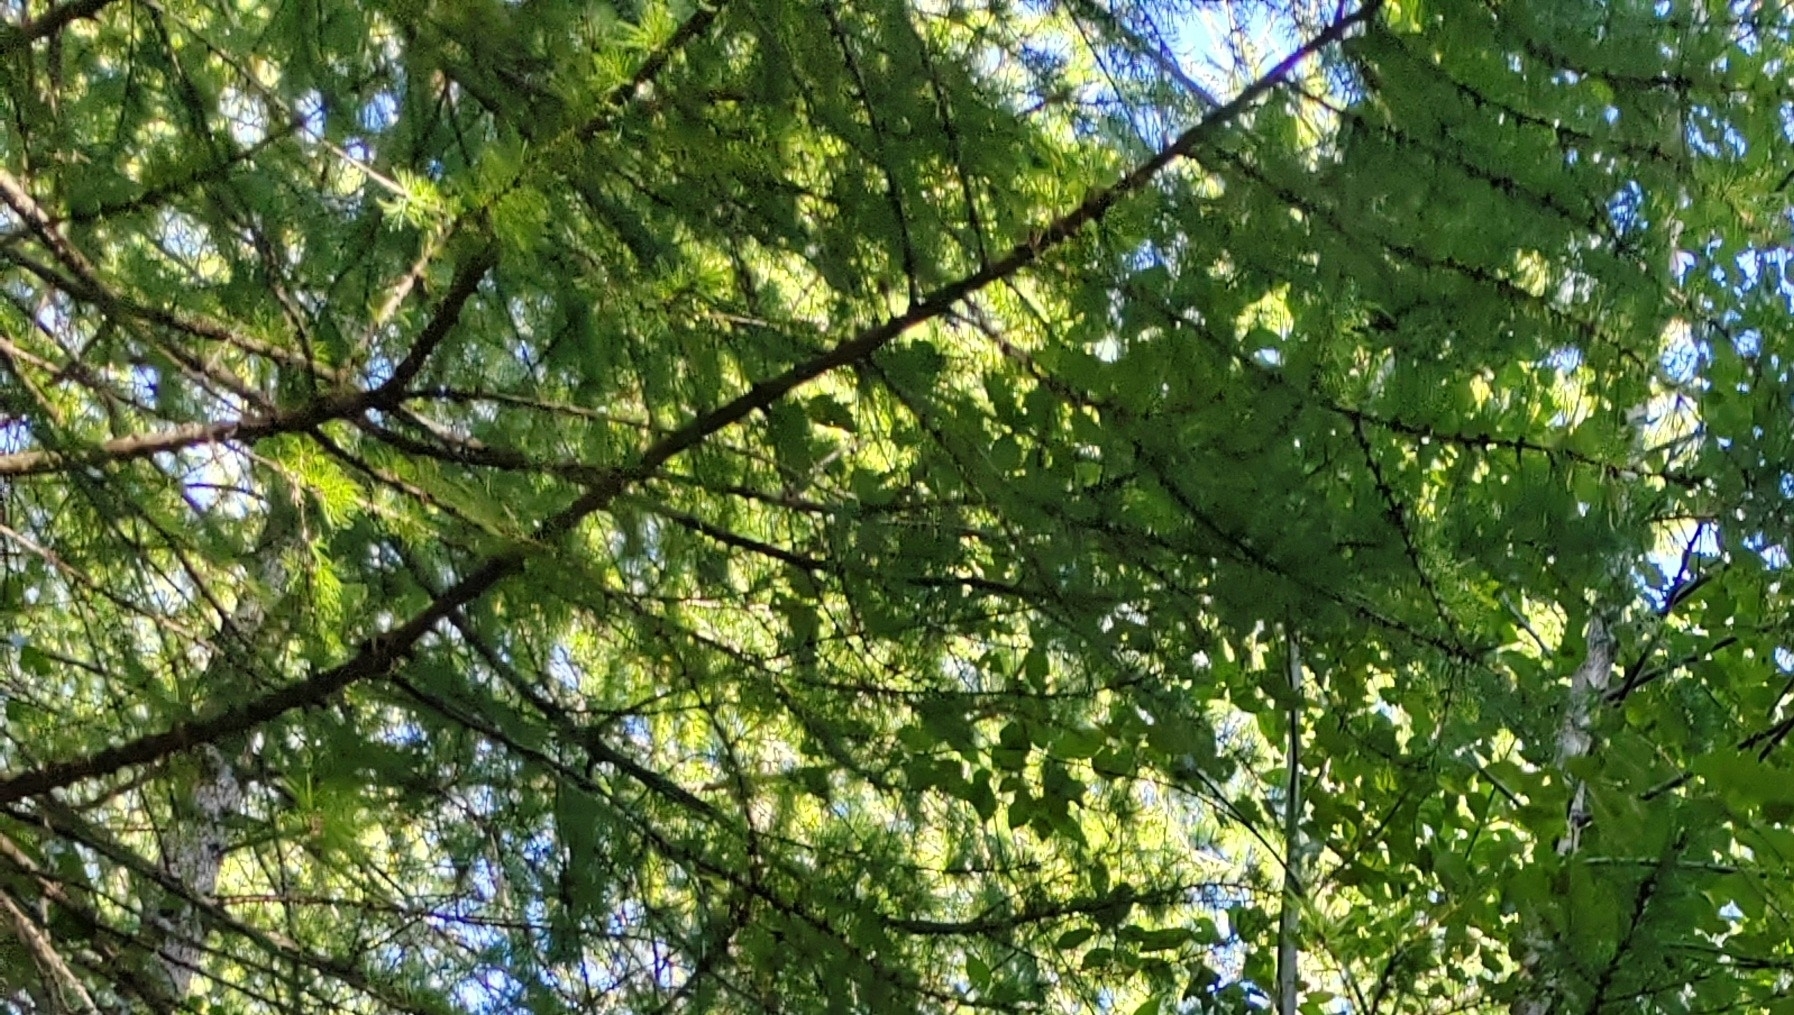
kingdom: Plantae
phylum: Tracheophyta
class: Pinopsida
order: Pinales
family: Pinaceae
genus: Larix
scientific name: Larix sibirica
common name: Siberian larch
